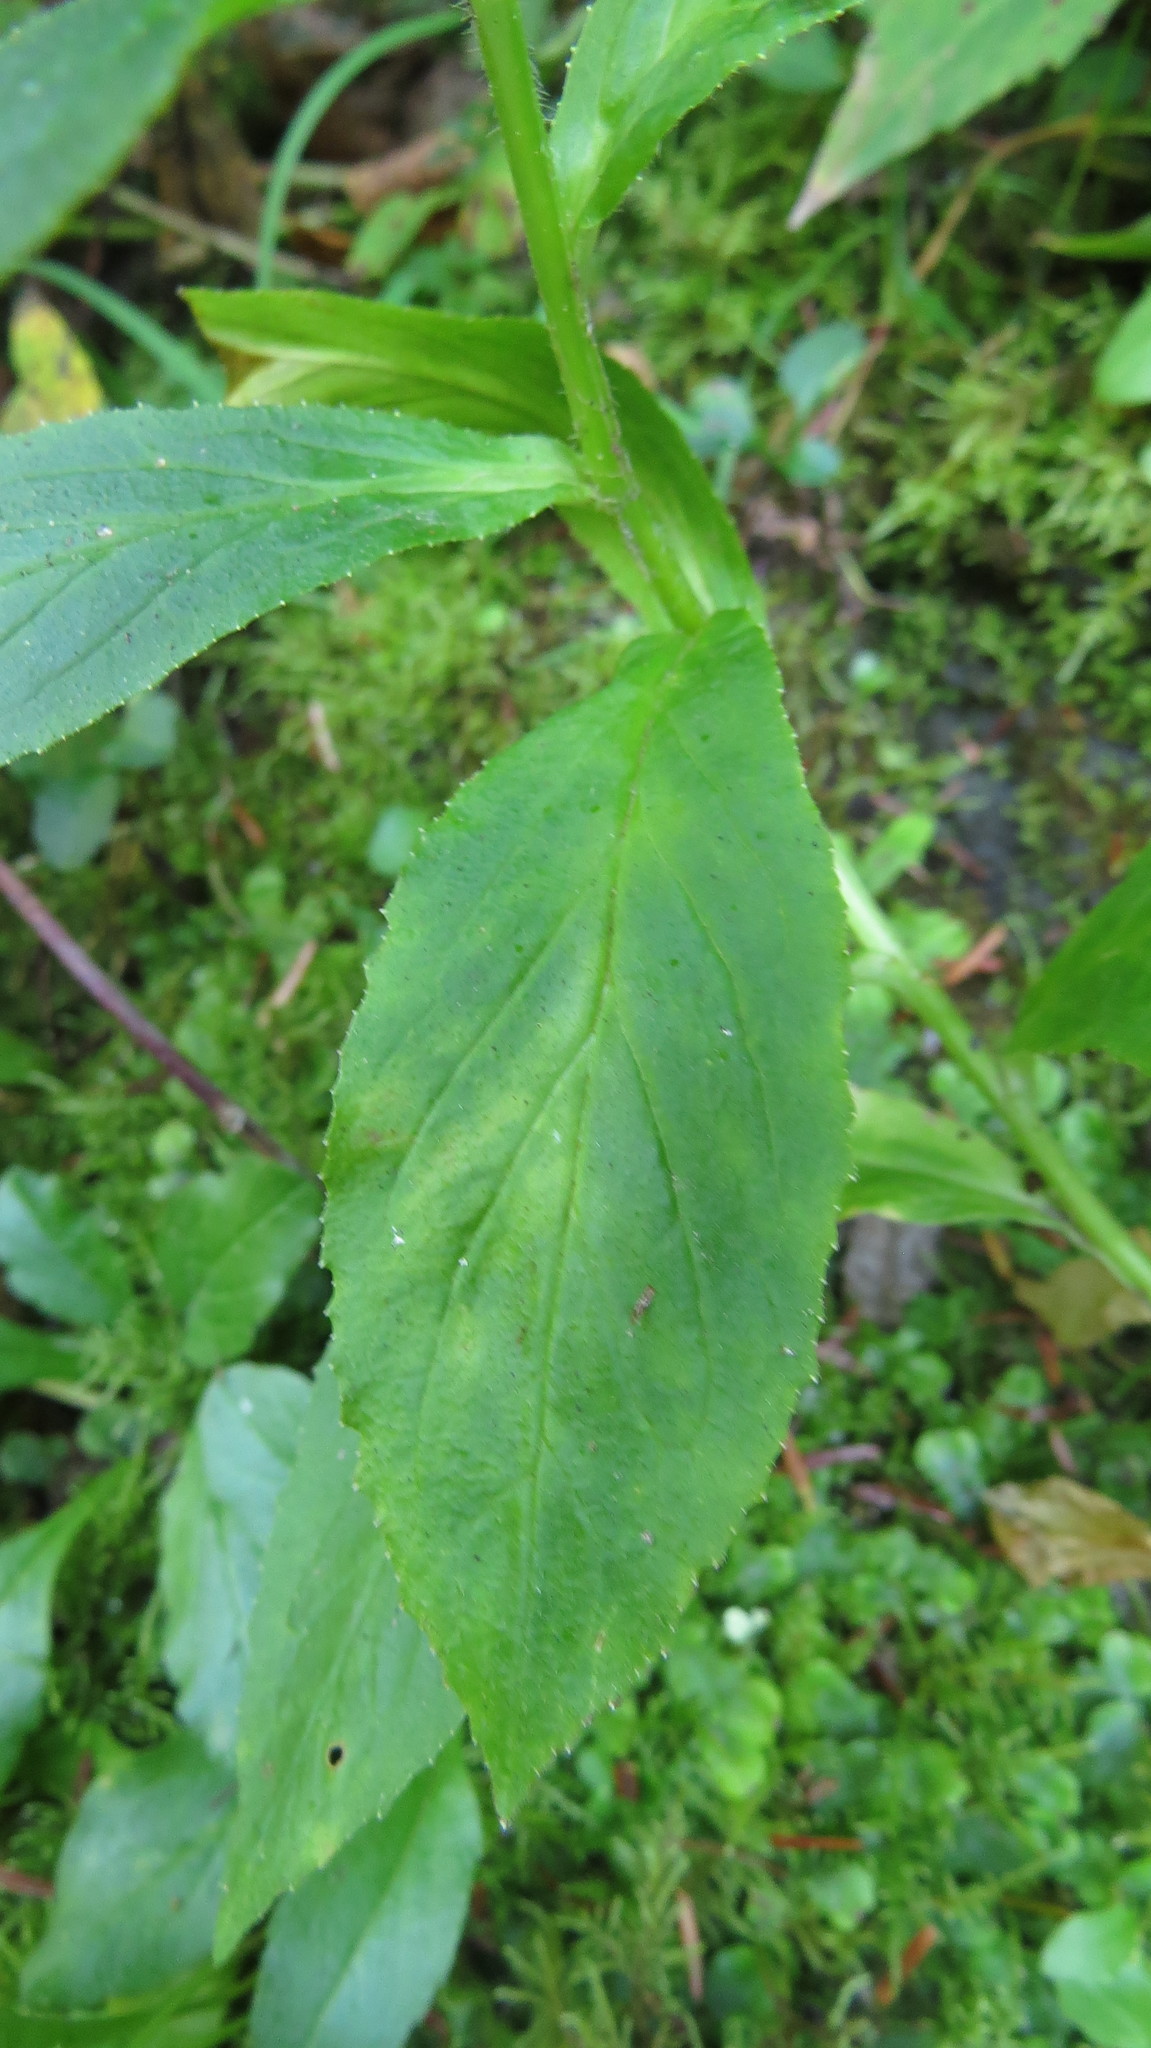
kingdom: Plantae
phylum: Tracheophyta
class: Magnoliopsida
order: Asterales
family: Campanulaceae
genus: Lobelia
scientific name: Lobelia siphilitica
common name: Great lobelia
